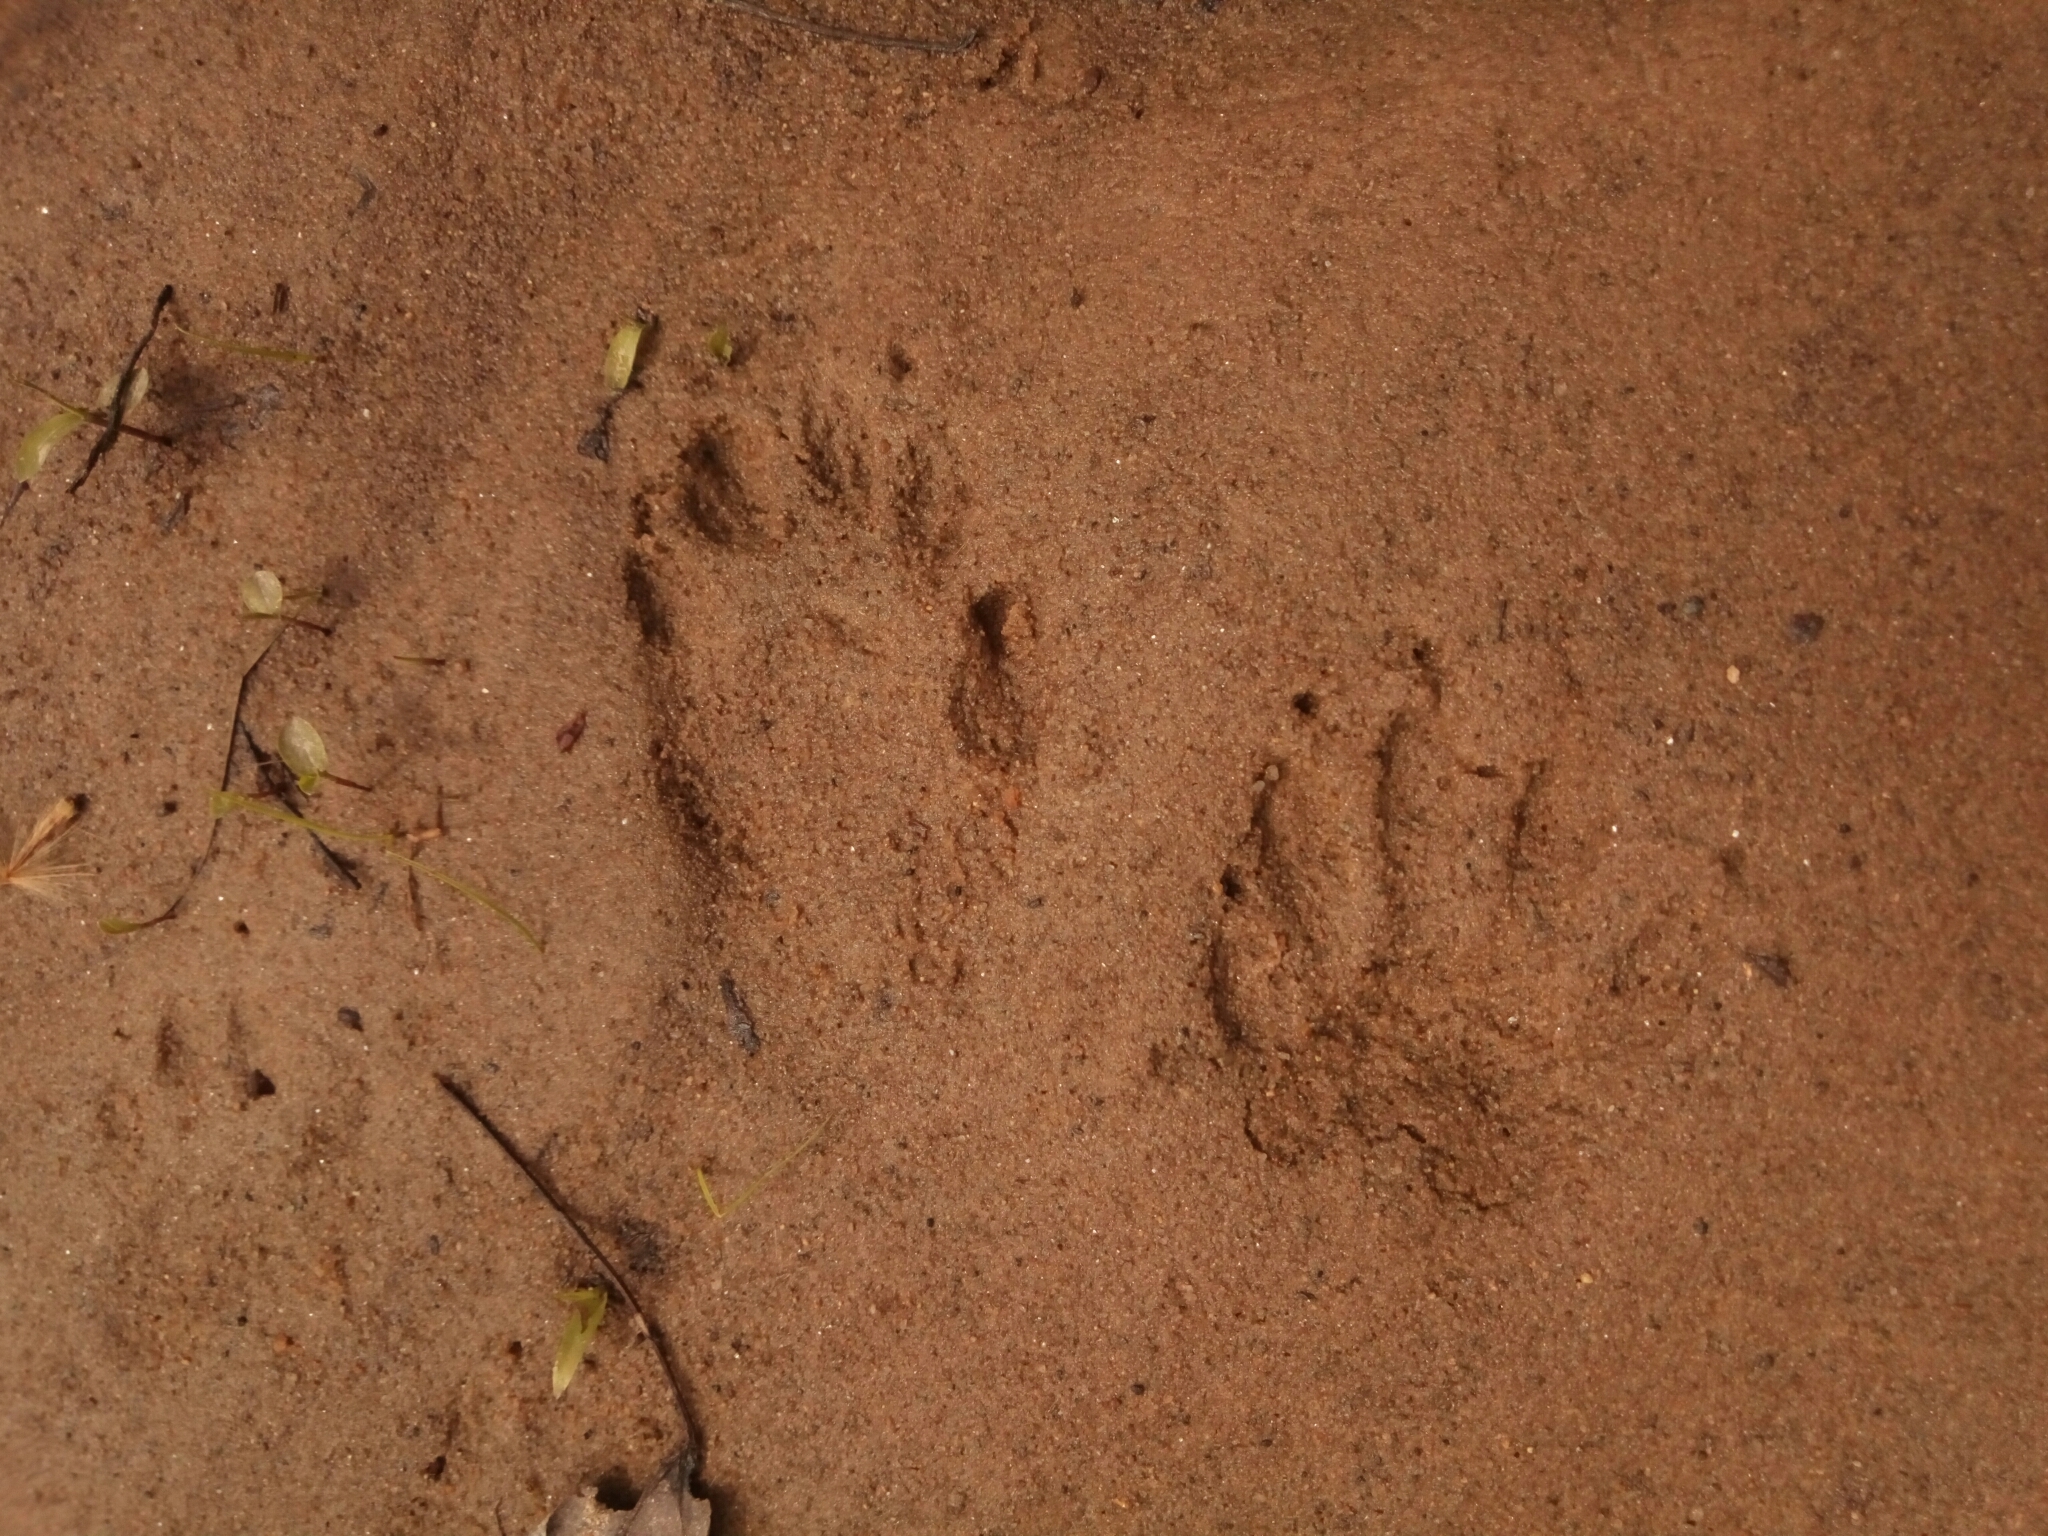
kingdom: Animalia
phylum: Chordata
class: Mammalia
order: Carnivora
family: Procyonidae
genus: Procyon
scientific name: Procyon lotor
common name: Raccoon
